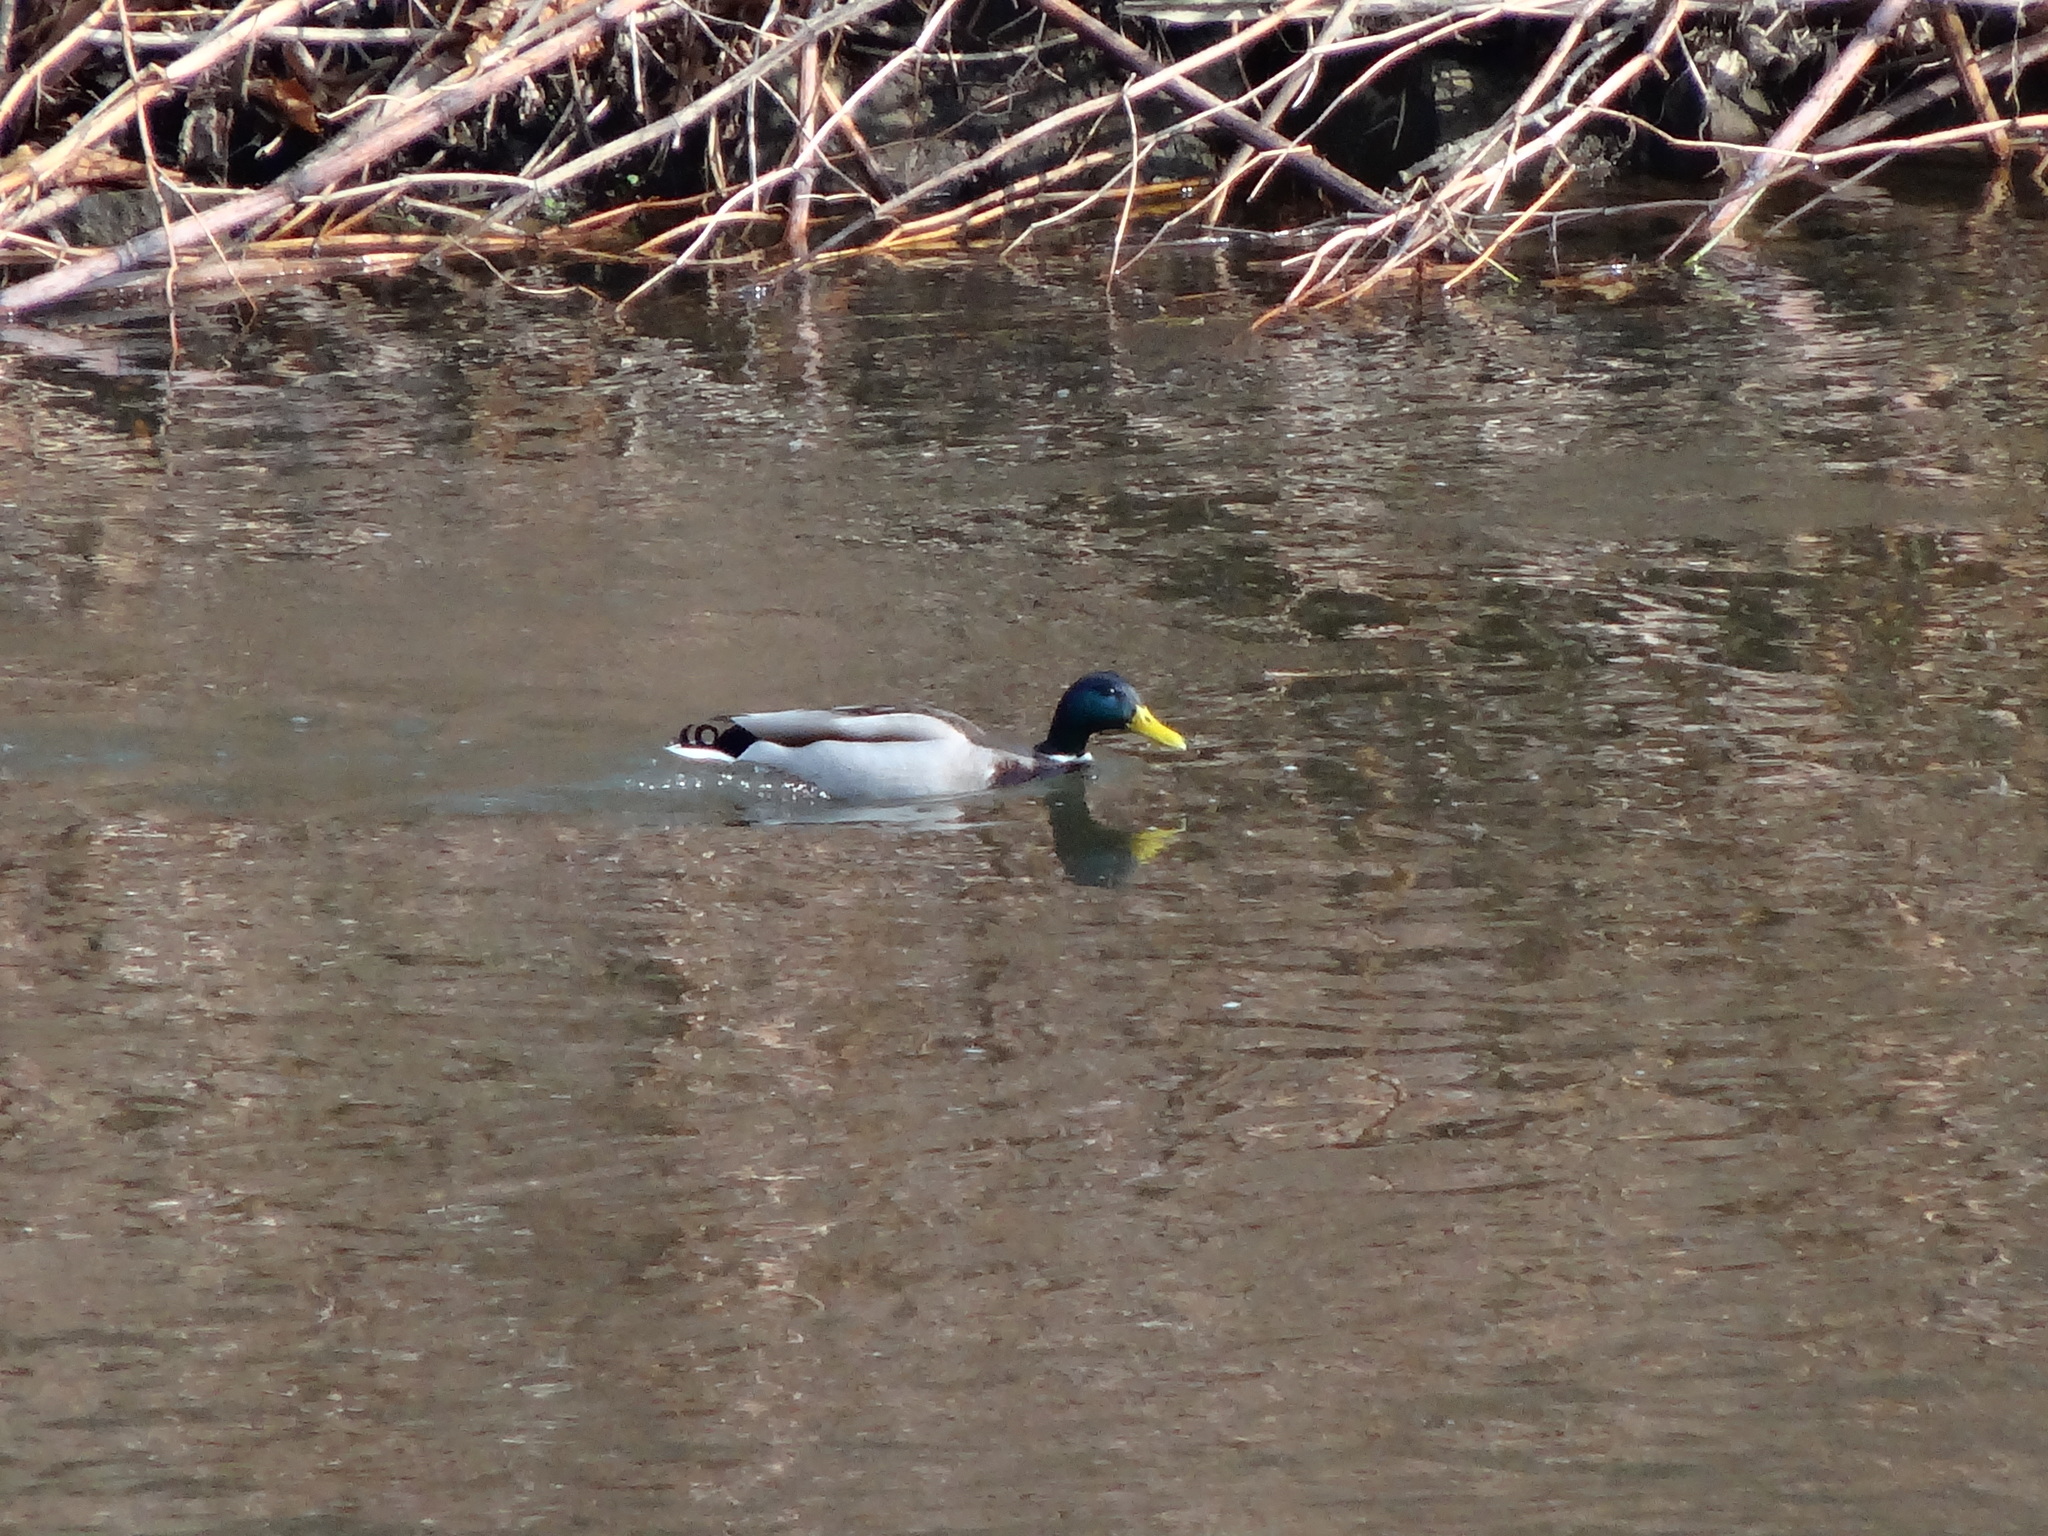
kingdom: Animalia
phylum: Chordata
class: Aves
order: Anseriformes
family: Anatidae
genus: Anas
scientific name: Anas platyrhynchos
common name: Mallard
